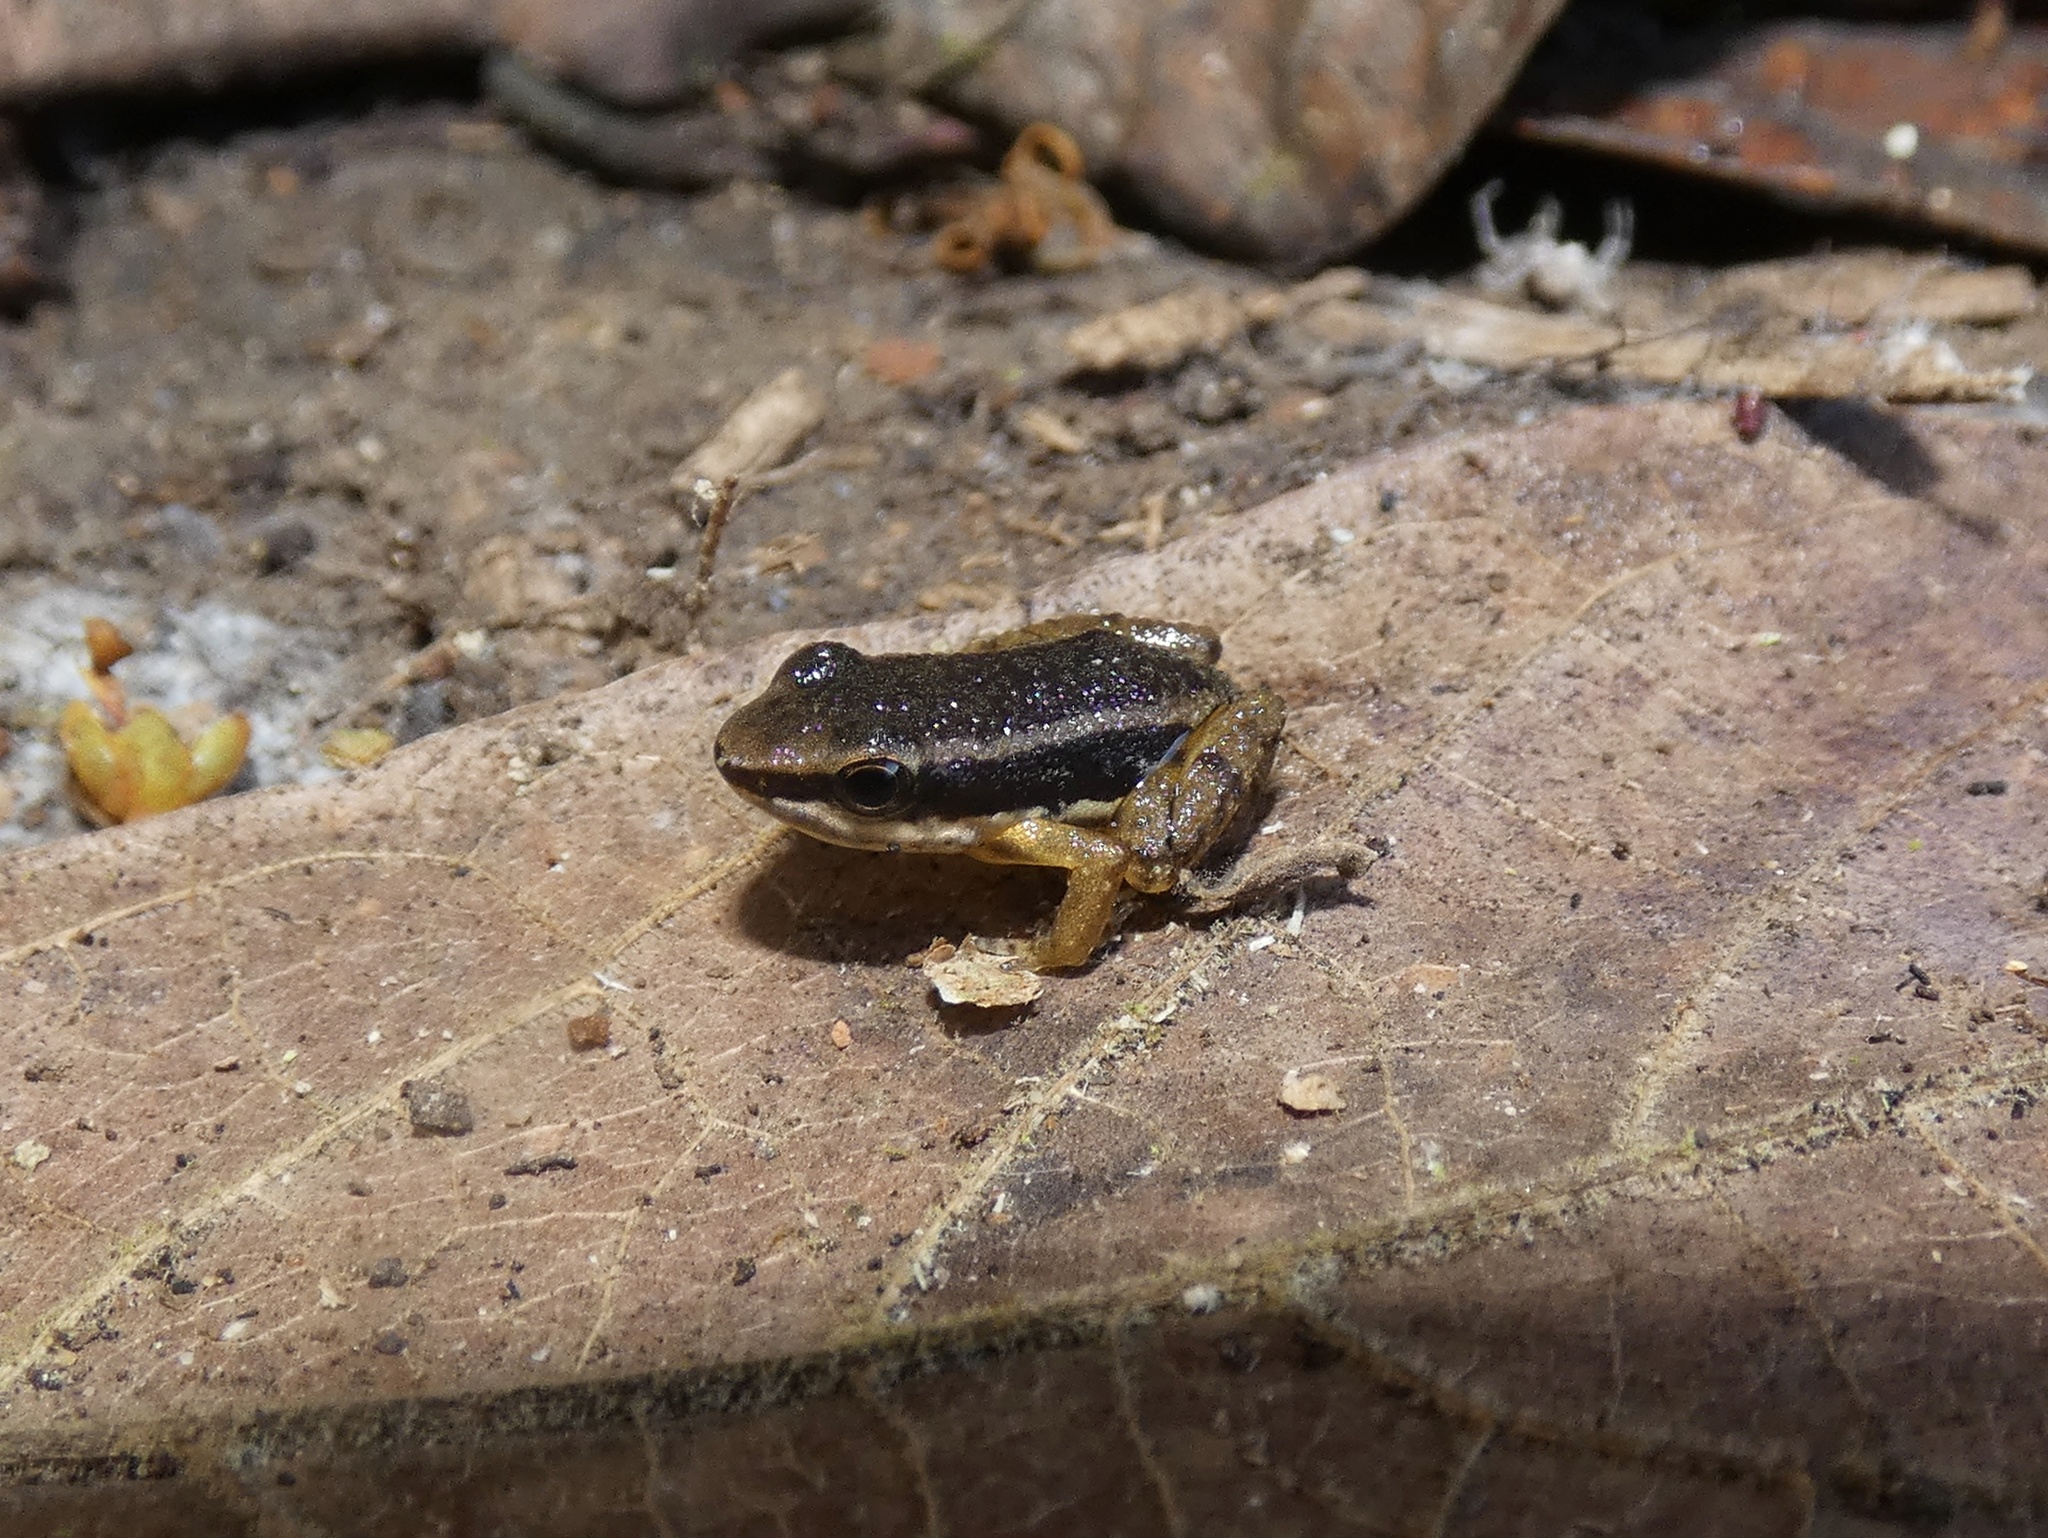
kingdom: Animalia
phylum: Chordata
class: Amphibia
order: Anura
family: Aromobatidae
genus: Allobates
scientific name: Allobates talamancae
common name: Talamanca rocket frog
